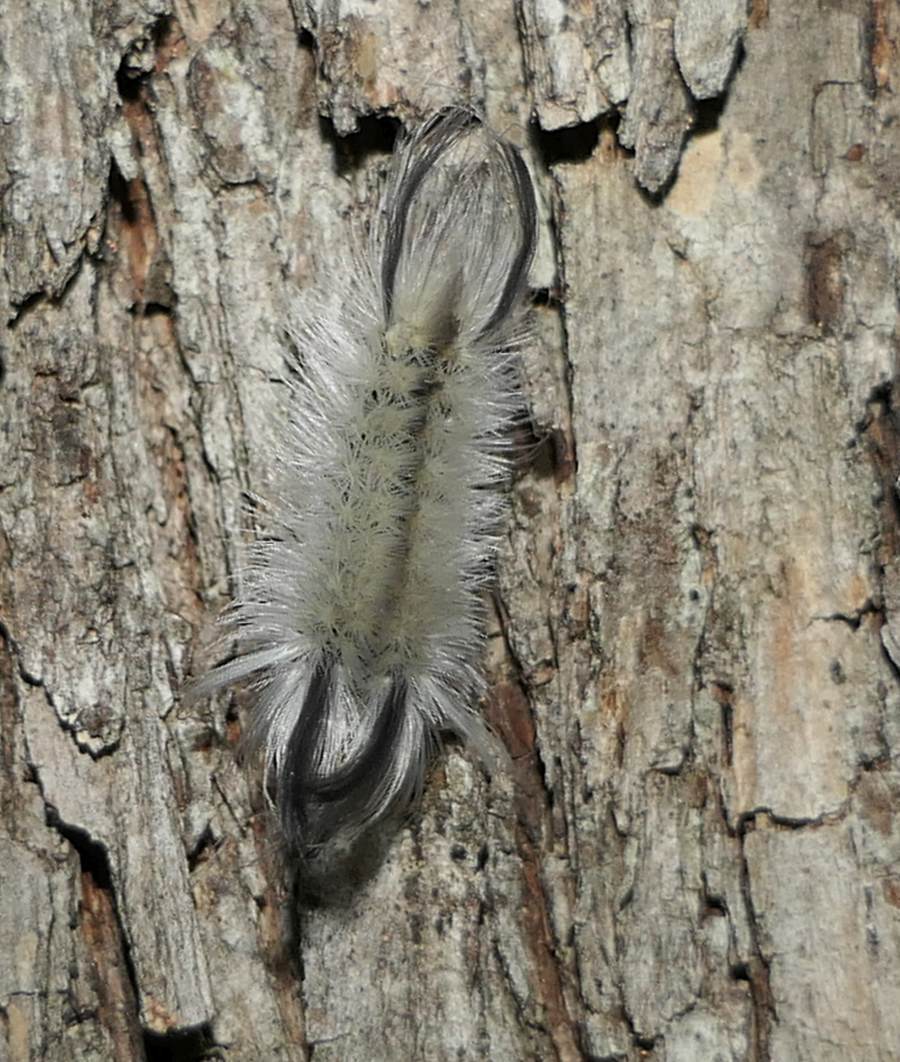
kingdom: Animalia
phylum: Arthropoda
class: Insecta
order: Lepidoptera
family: Erebidae
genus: Halysidota
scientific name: Halysidota tessellaris
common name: Banded tussock moth
